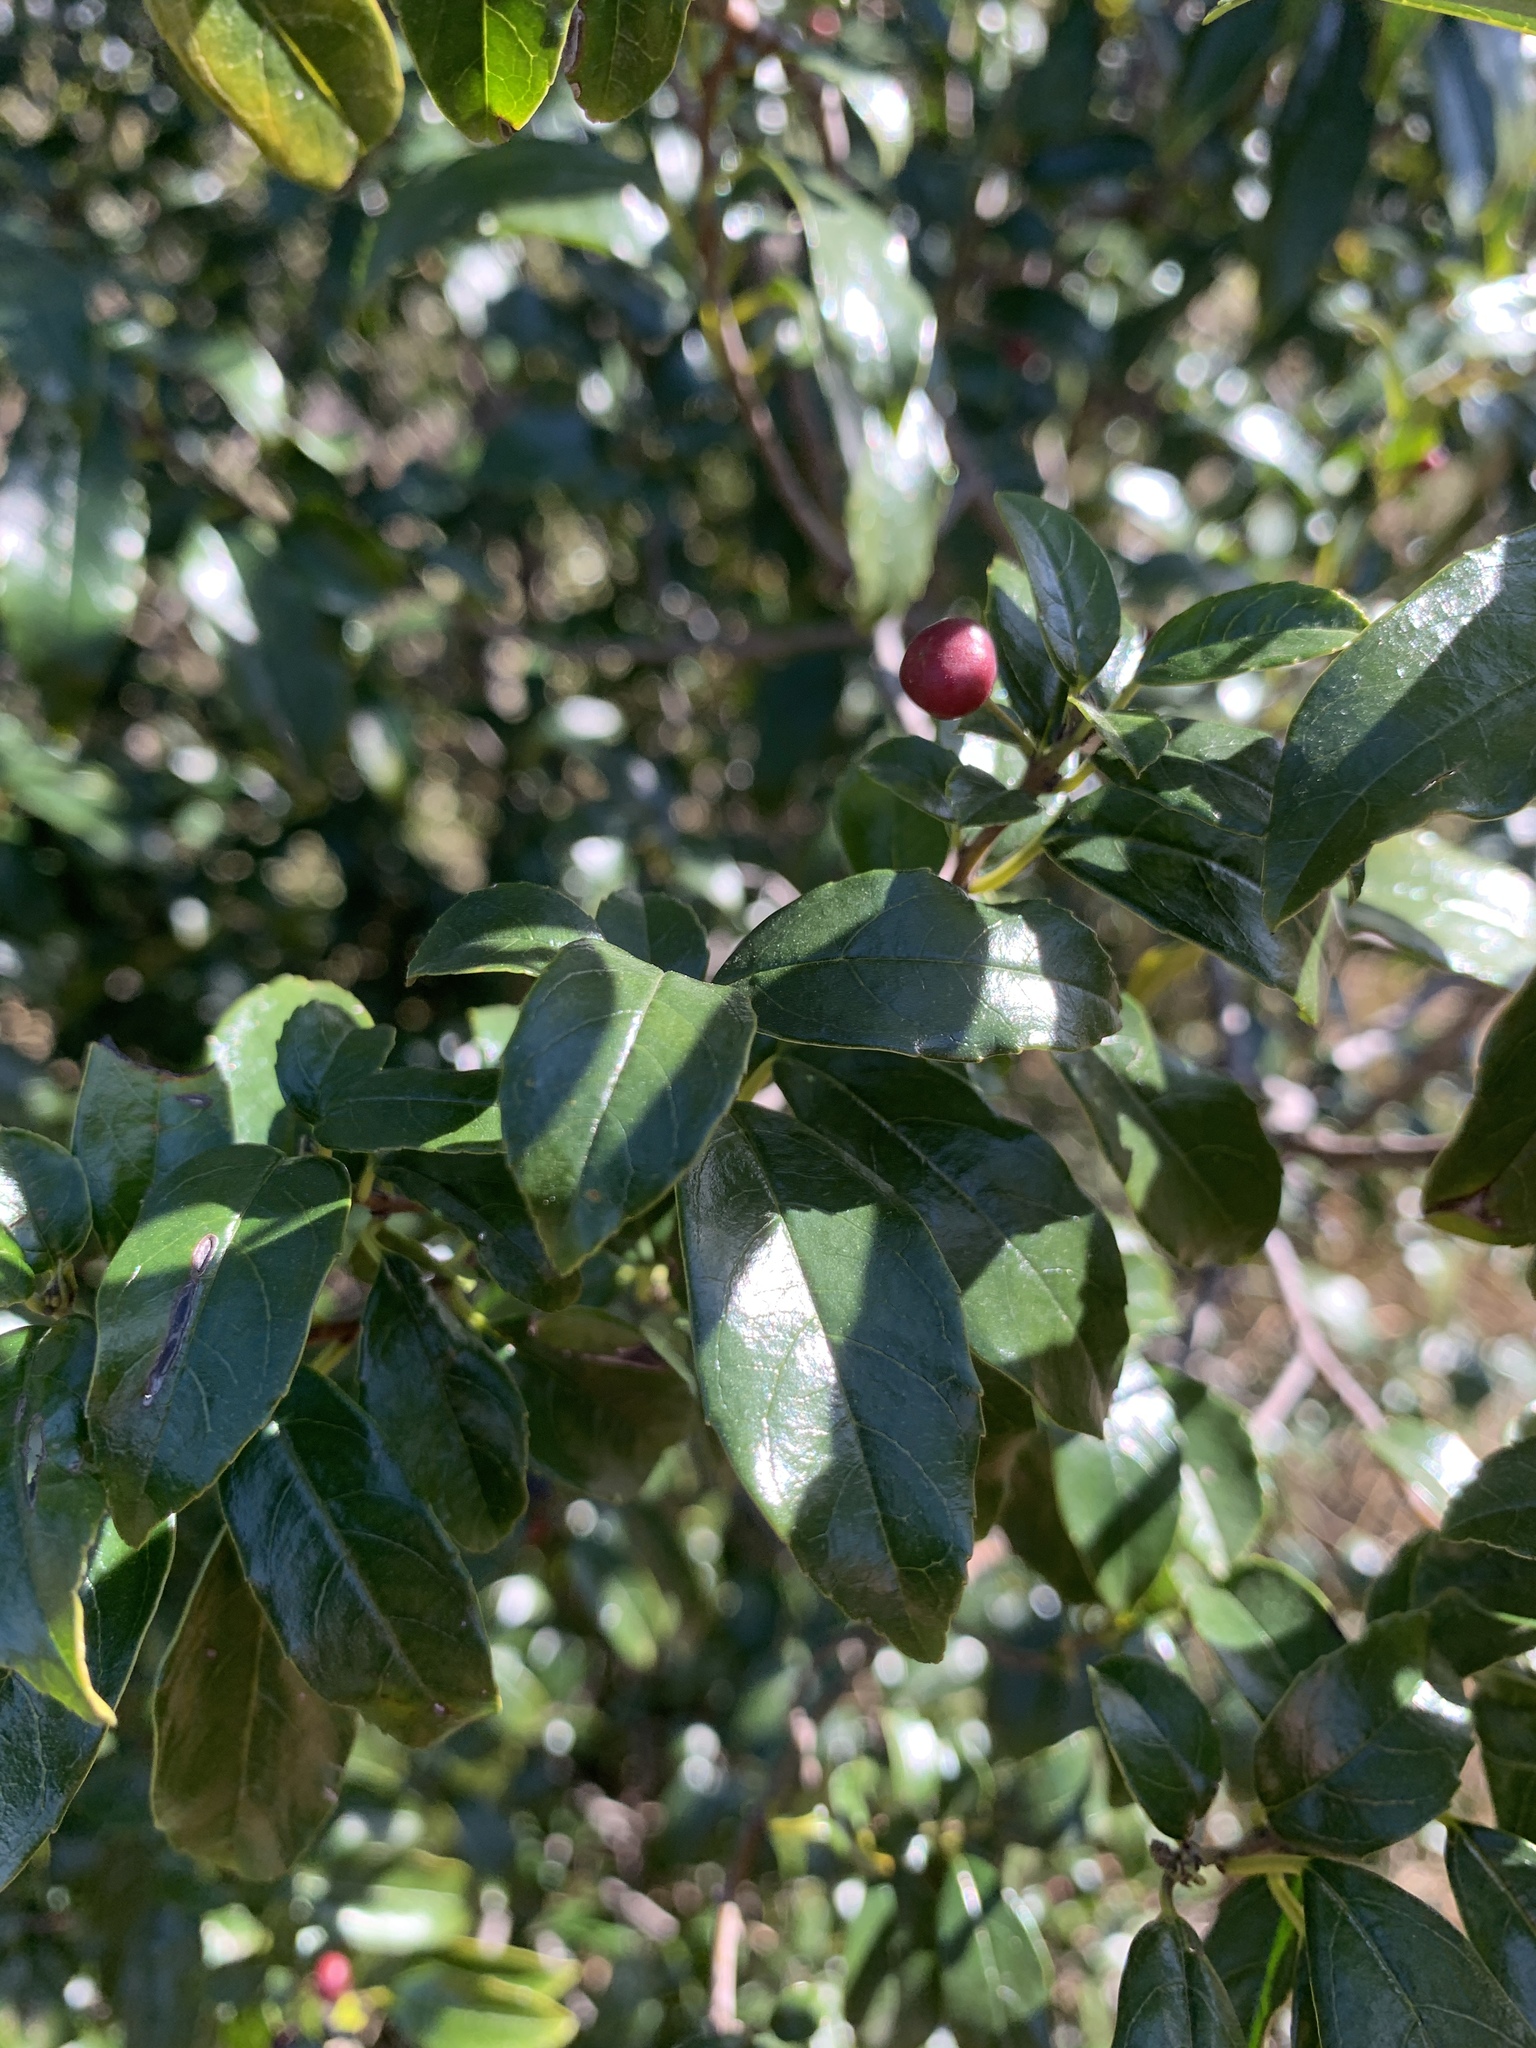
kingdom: Plantae
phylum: Tracheophyta
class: Magnoliopsida
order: Rosales
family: Rhamnaceae
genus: Rhamnus
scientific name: Rhamnus prinoides
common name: Dogwood
